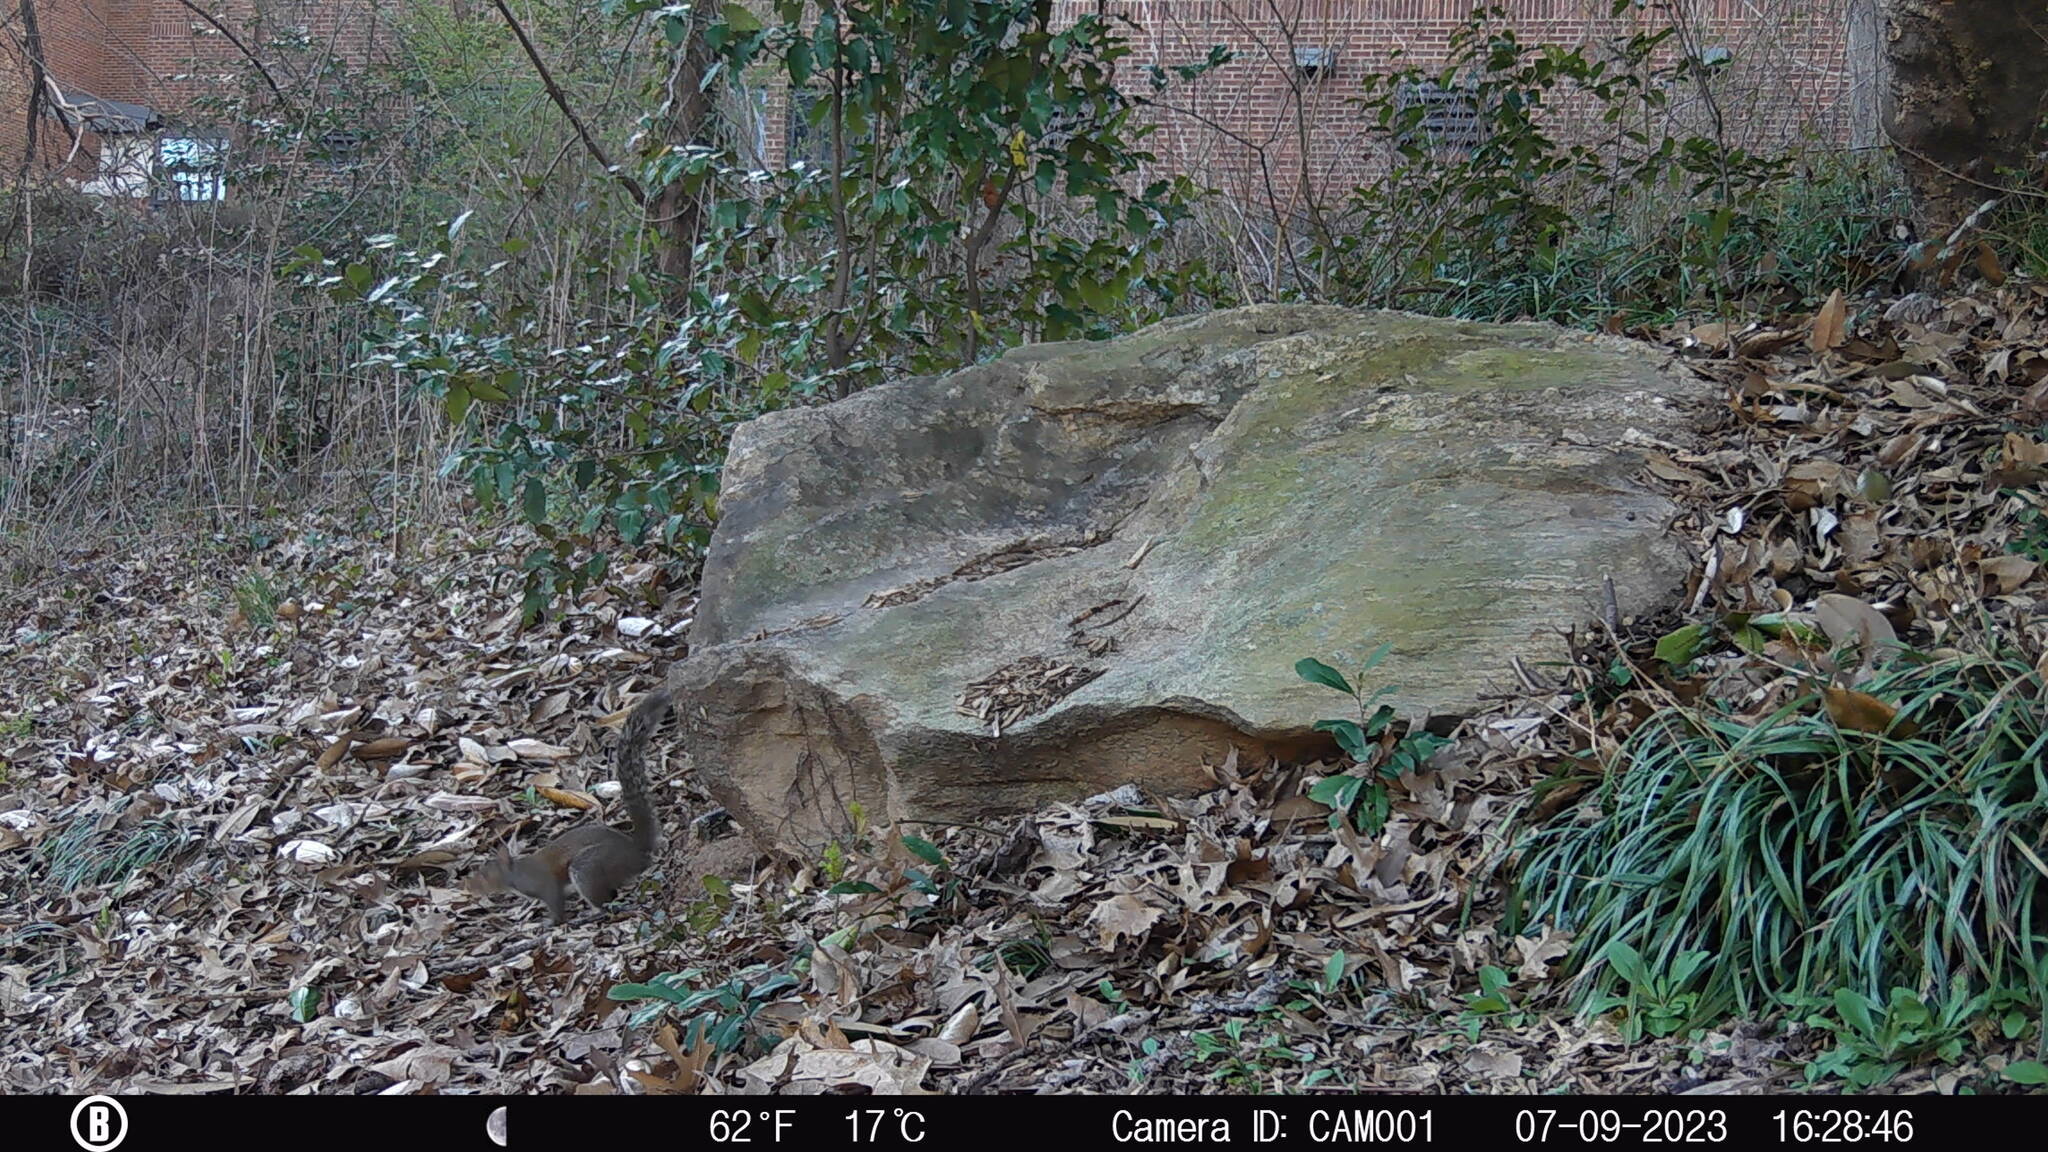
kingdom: Animalia
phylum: Chordata
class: Mammalia
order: Rodentia
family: Sciuridae
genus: Sciurus
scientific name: Sciurus carolinensis
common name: Eastern gray squirrel
